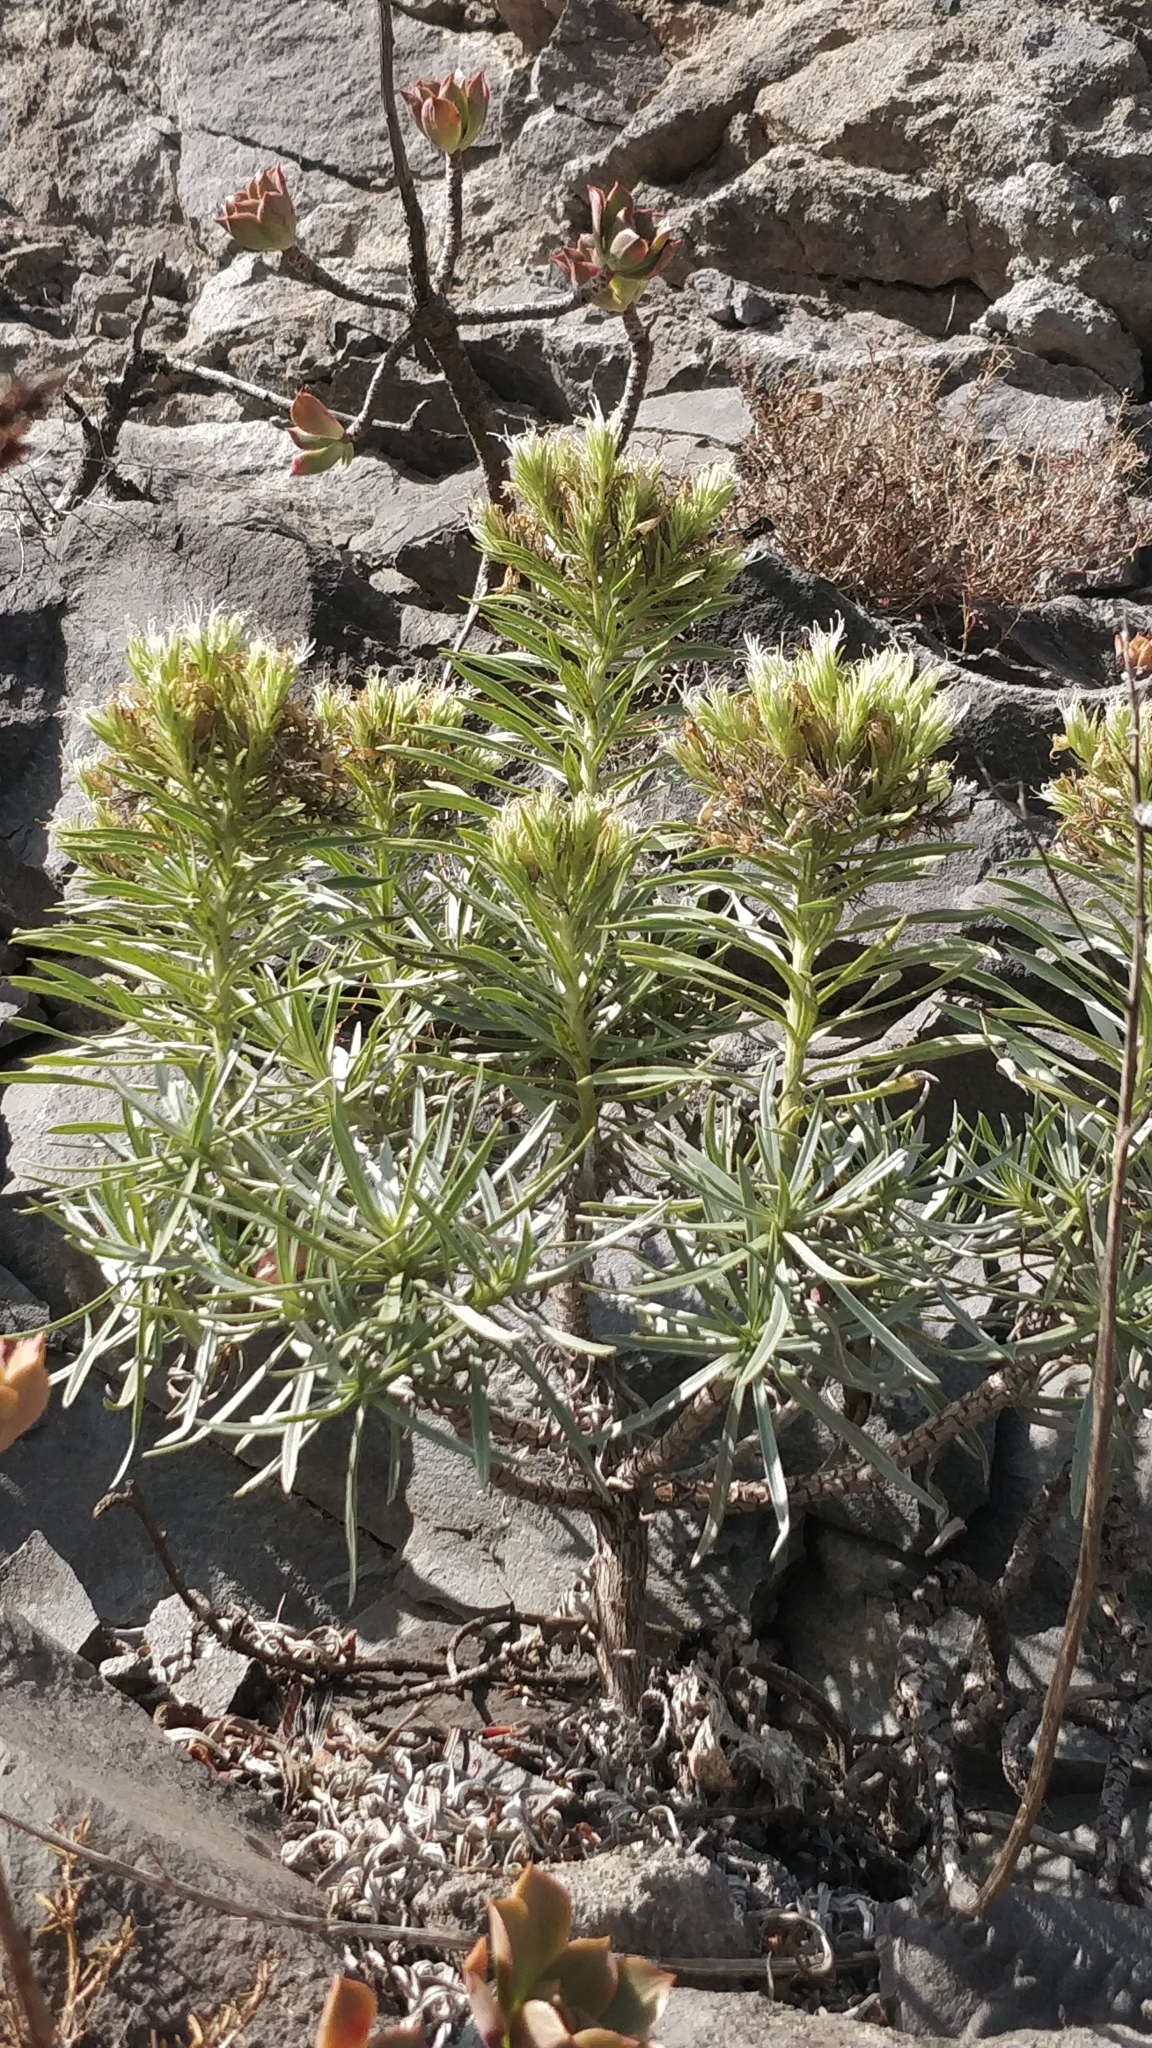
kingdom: Plantae
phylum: Tracheophyta
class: Magnoliopsida
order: Boraginales
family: Boraginaceae
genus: Echium
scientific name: Echium aculeatum
